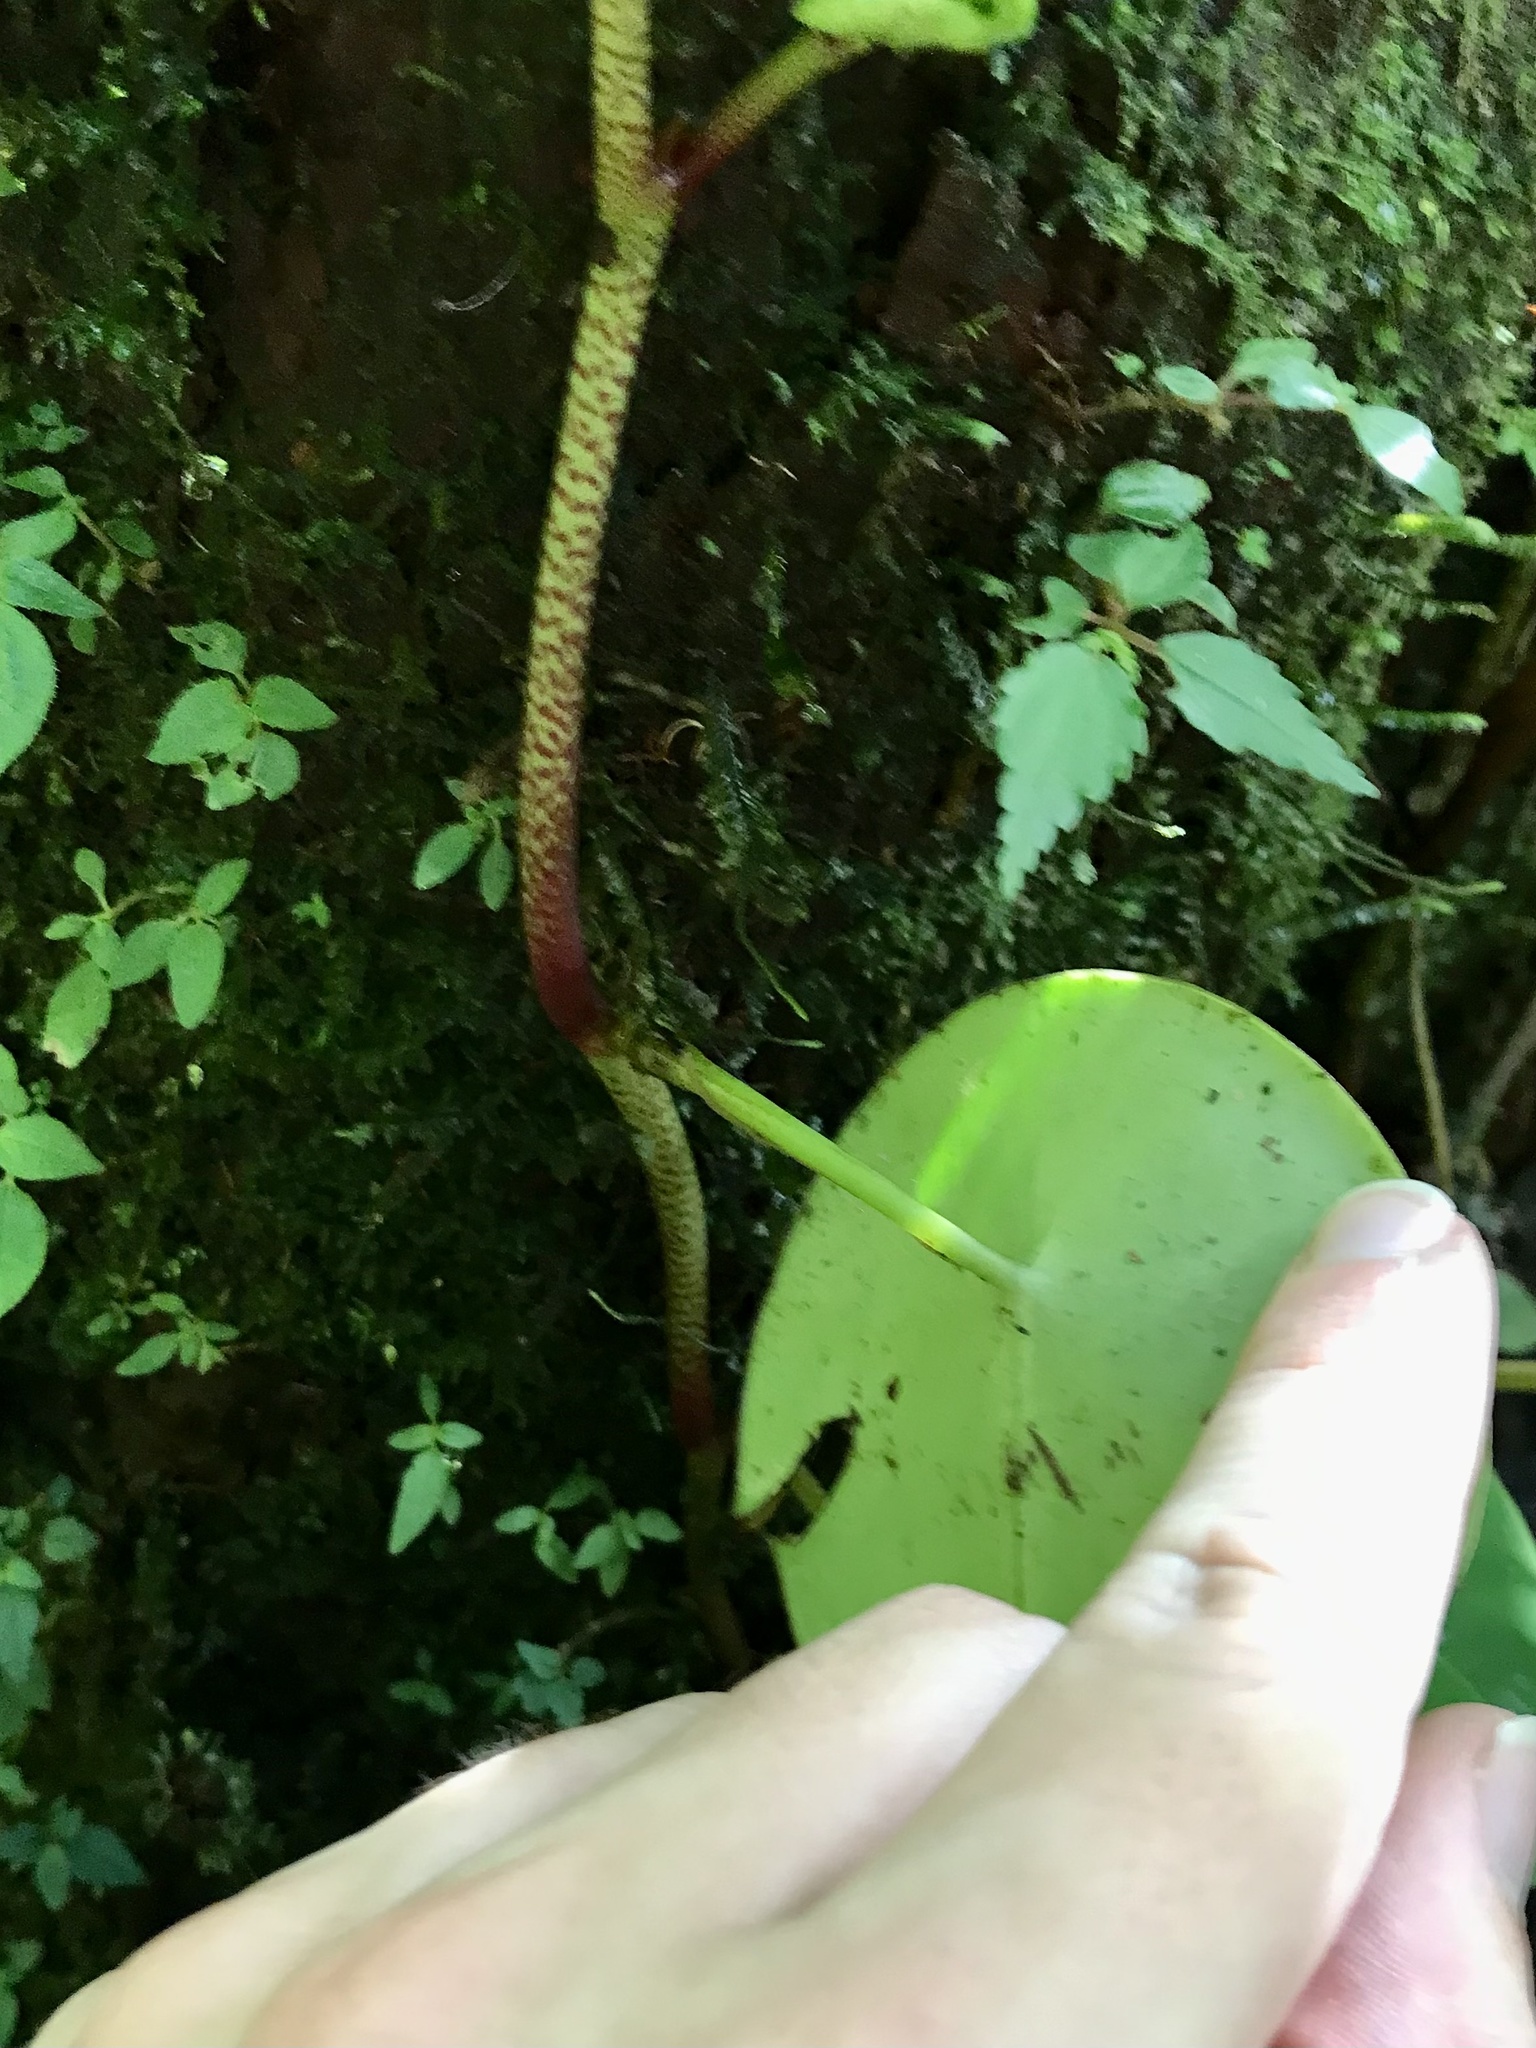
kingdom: Plantae
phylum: Tracheophyta
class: Magnoliopsida
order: Piperales
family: Piperaceae
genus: Peperomia
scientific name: Peperomia hernandiifolia
